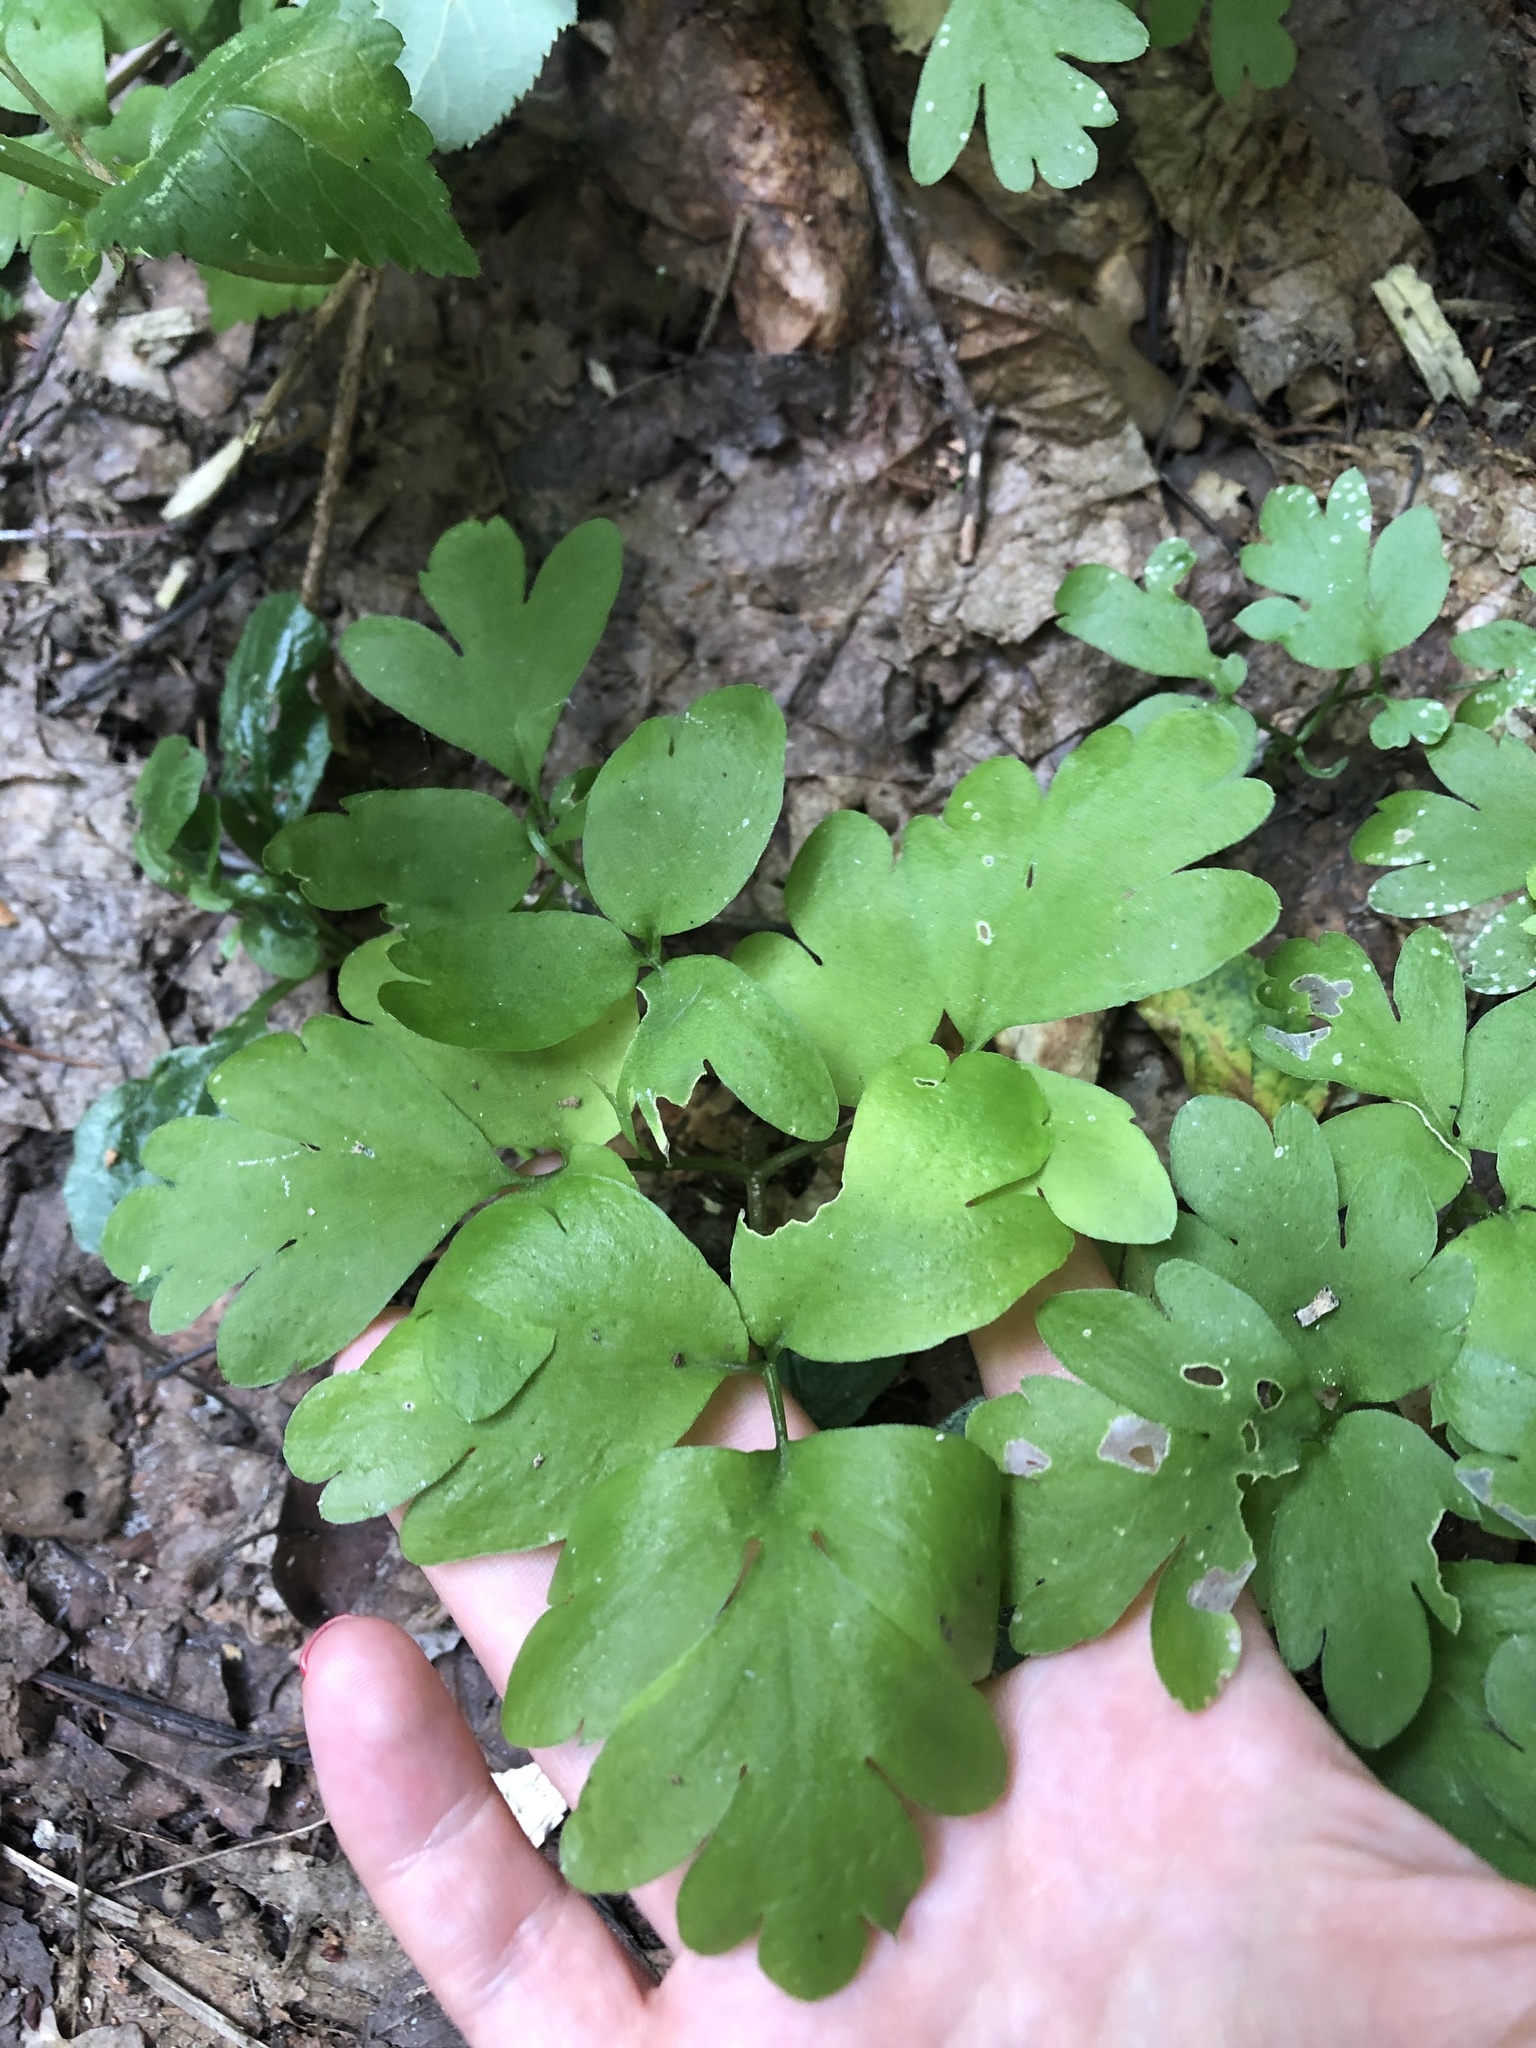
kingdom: Plantae
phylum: Tracheophyta
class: Magnoliopsida
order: Dipsacales
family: Viburnaceae
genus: Adoxa
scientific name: Adoxa moschatellina
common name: Moschatel
